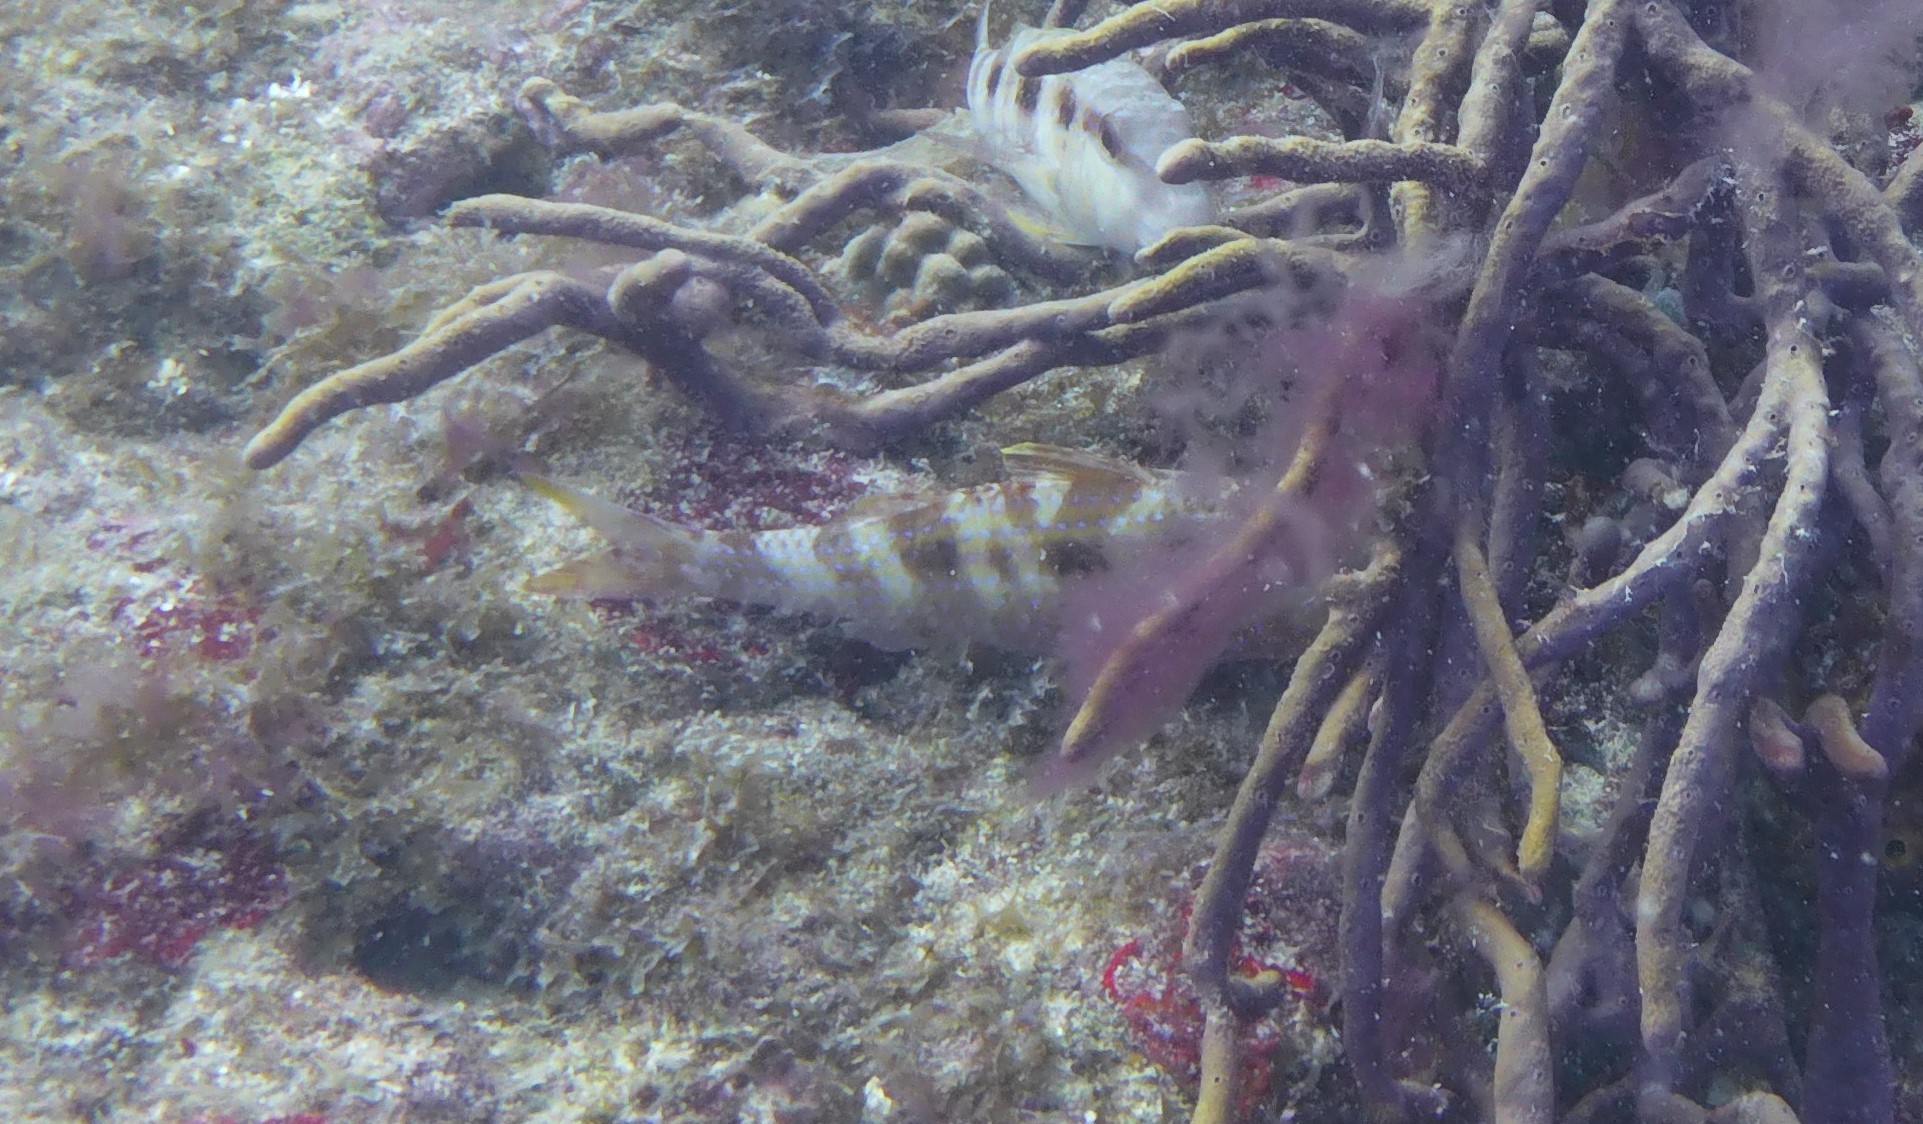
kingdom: Animalia
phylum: Chordata
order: Perciformes
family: Mullidae
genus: Pseudupeneus
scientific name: Pseudupeneus maculatus
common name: Spotted goatfish
